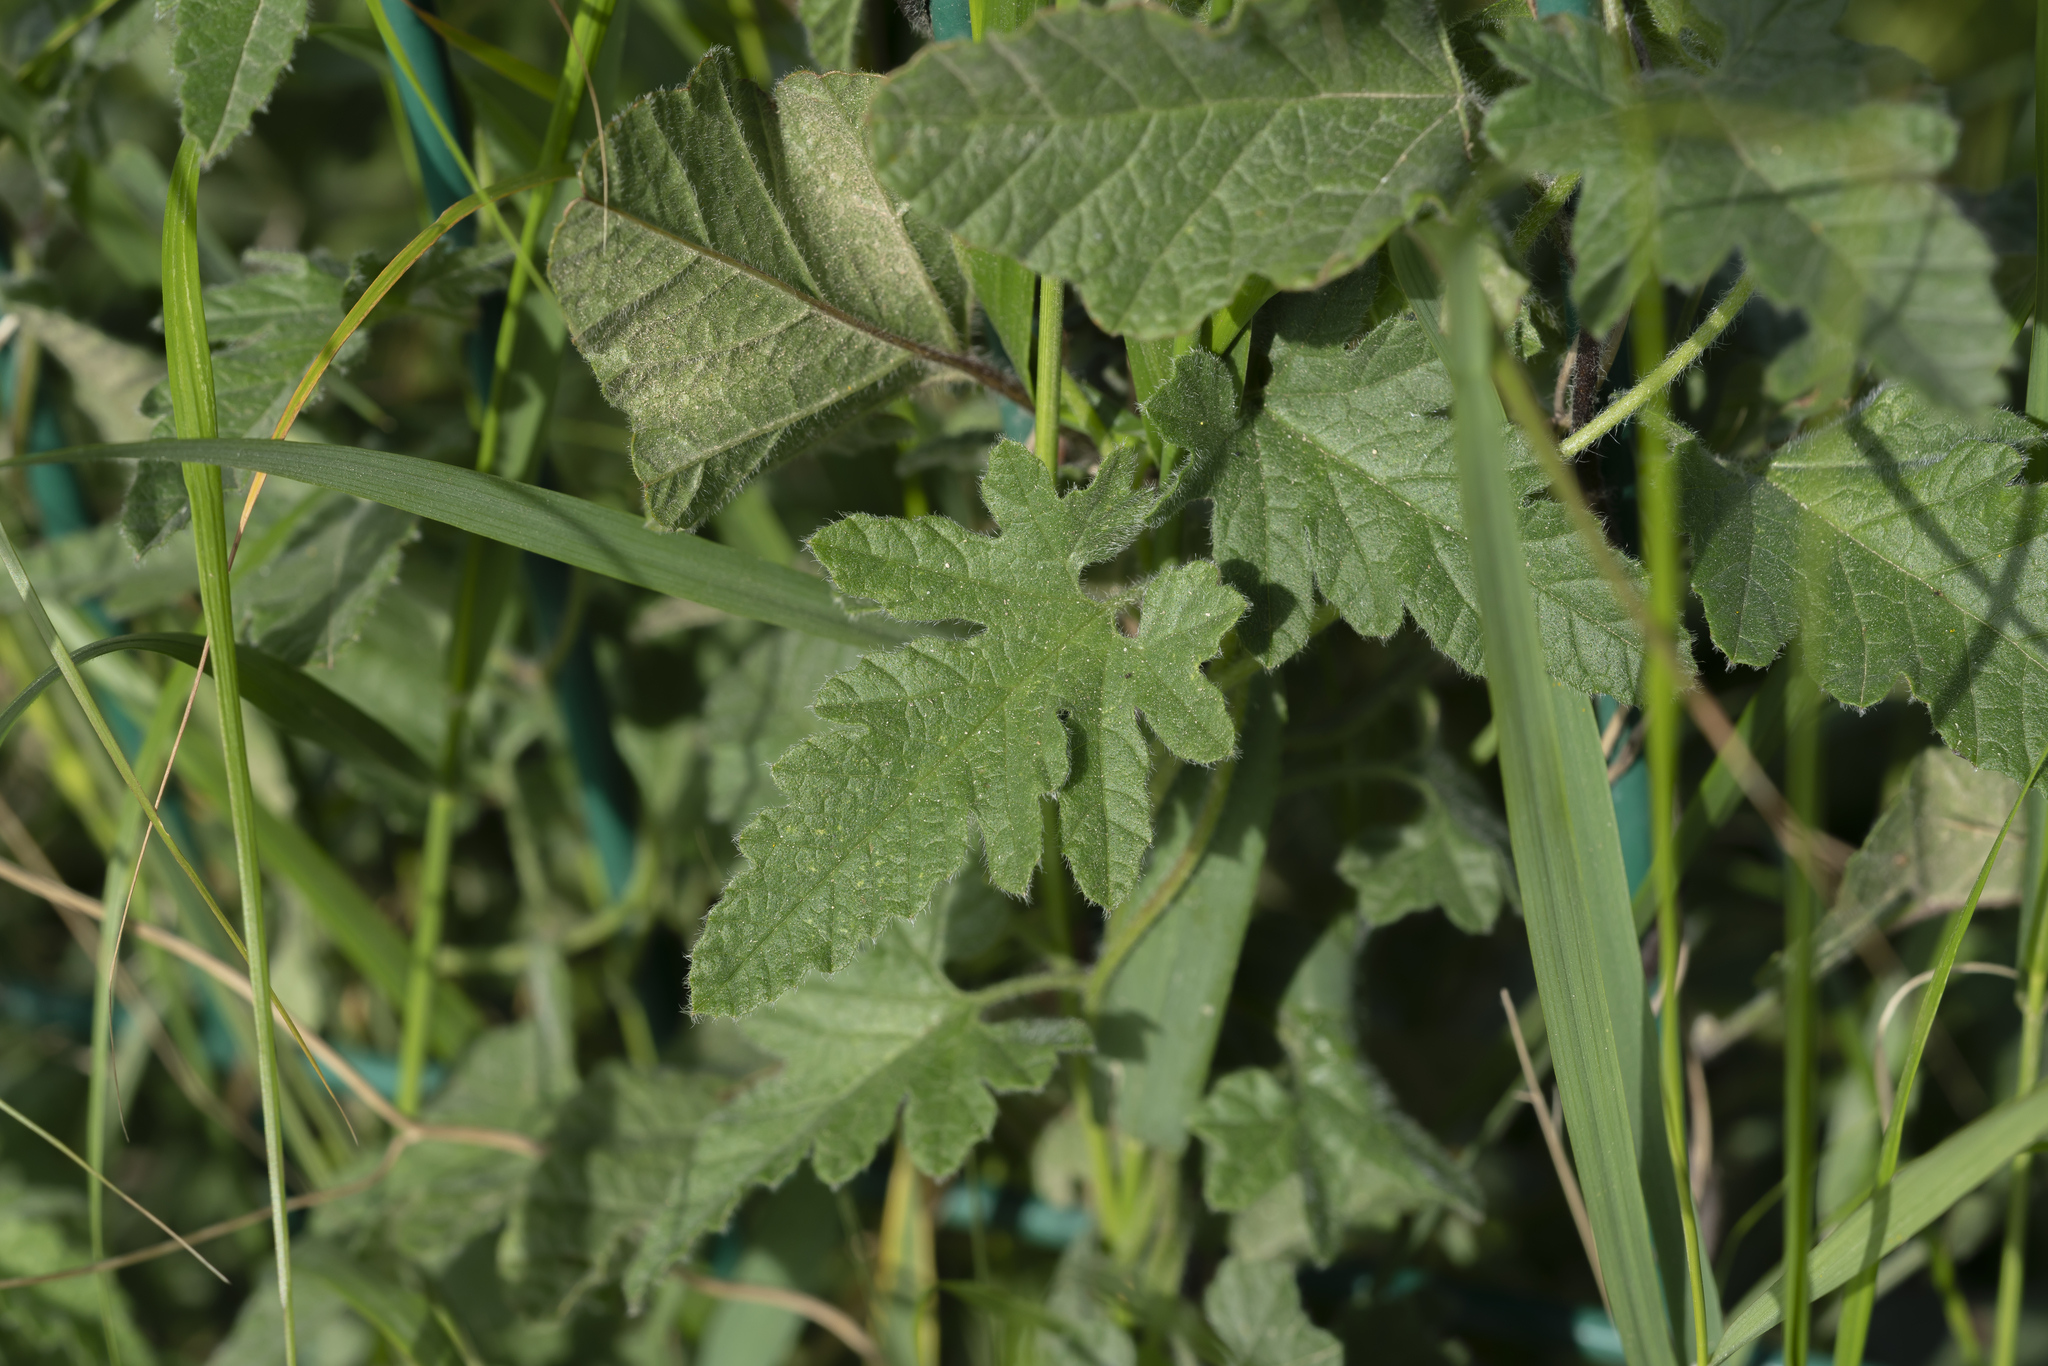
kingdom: Plantae
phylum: Tracheophyta
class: Magnoliopsida
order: Solanales
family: Convolvulaceae
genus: Convolvulus
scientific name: Convolvulus althaeoides
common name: Mallow bindweed
